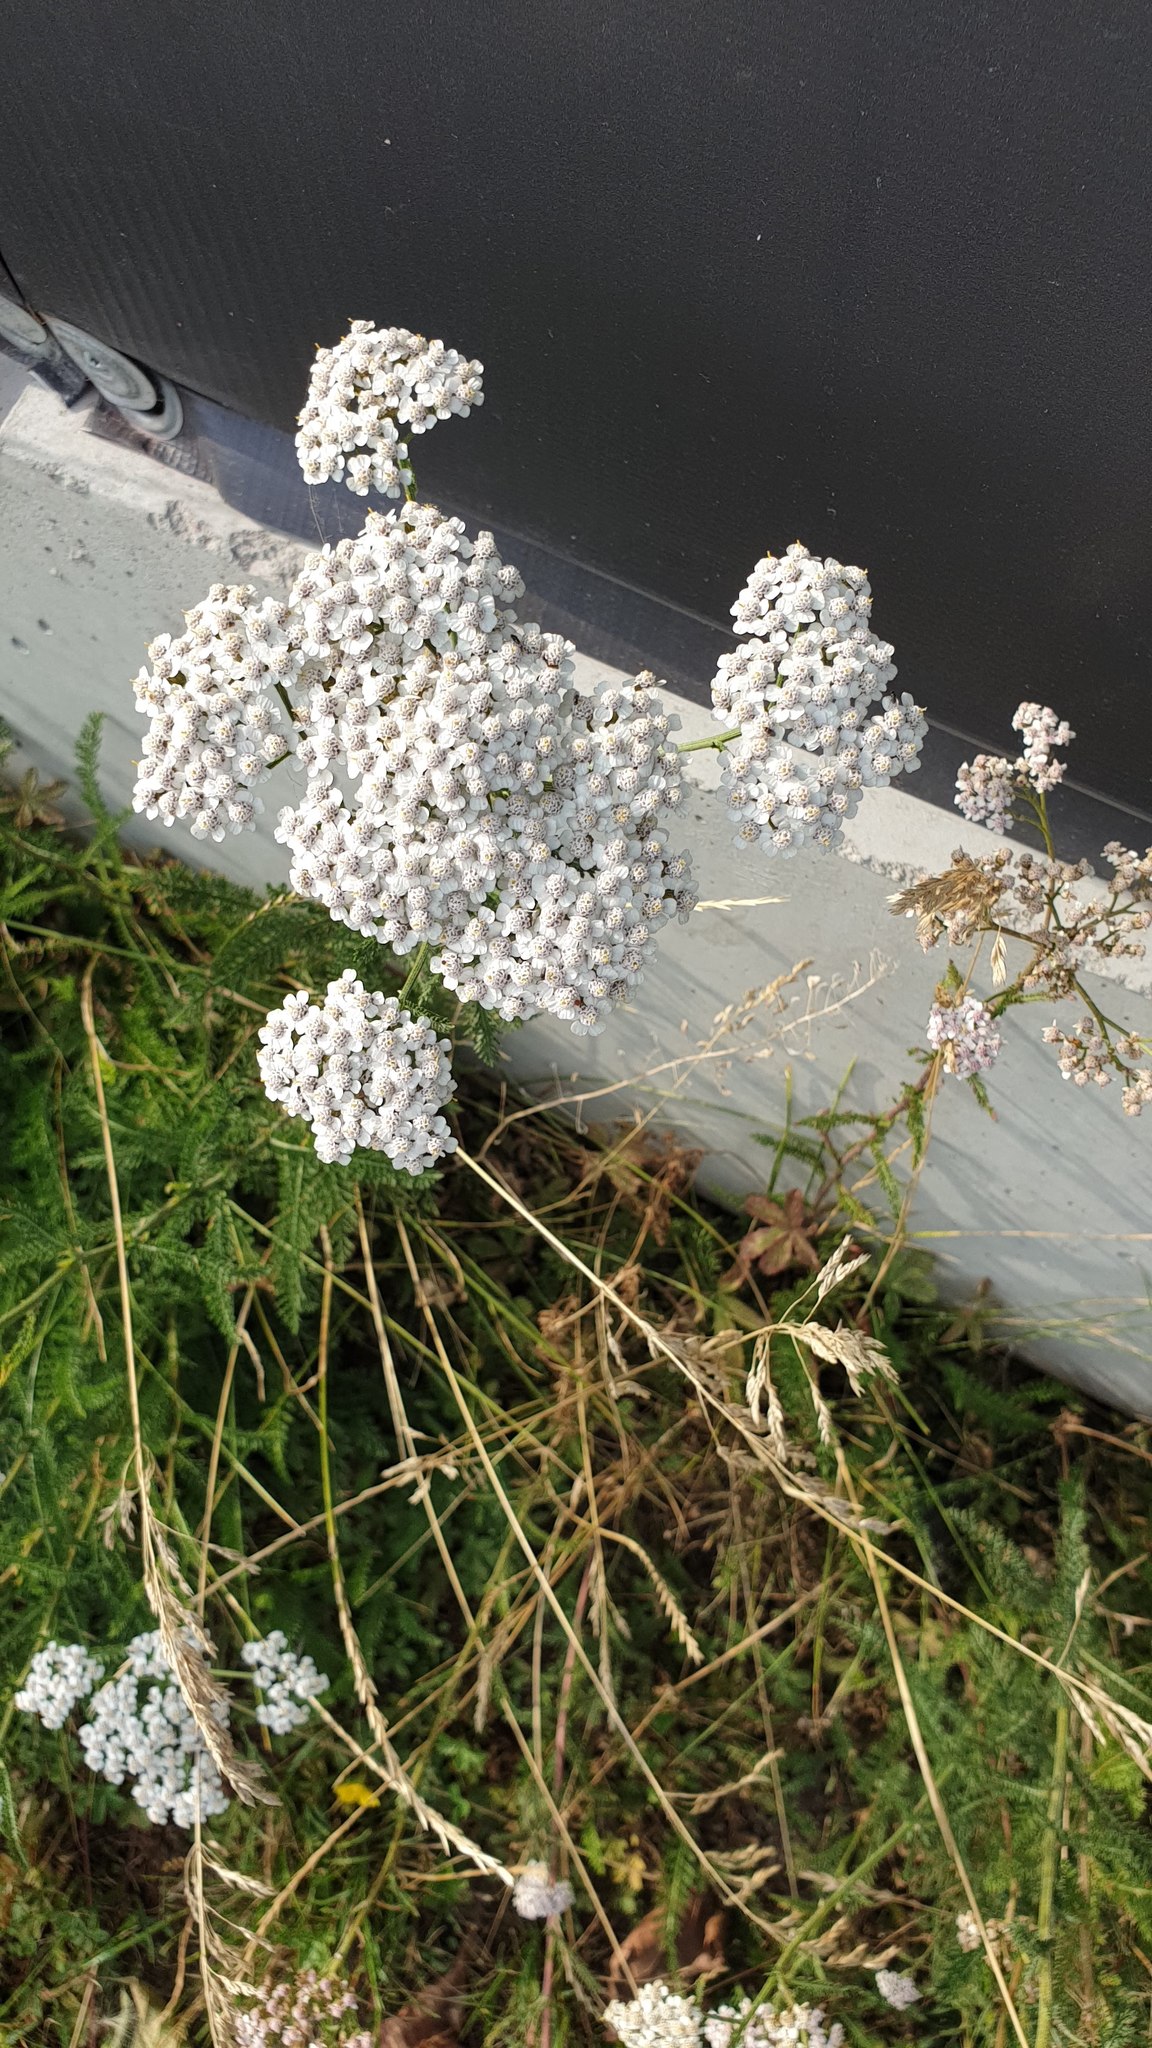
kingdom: Plantae
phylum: Tracheophyta
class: Magnoliopsida
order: Asterales
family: Asteraceae
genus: Achillea
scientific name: Achillea millefolium
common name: Yarrow
